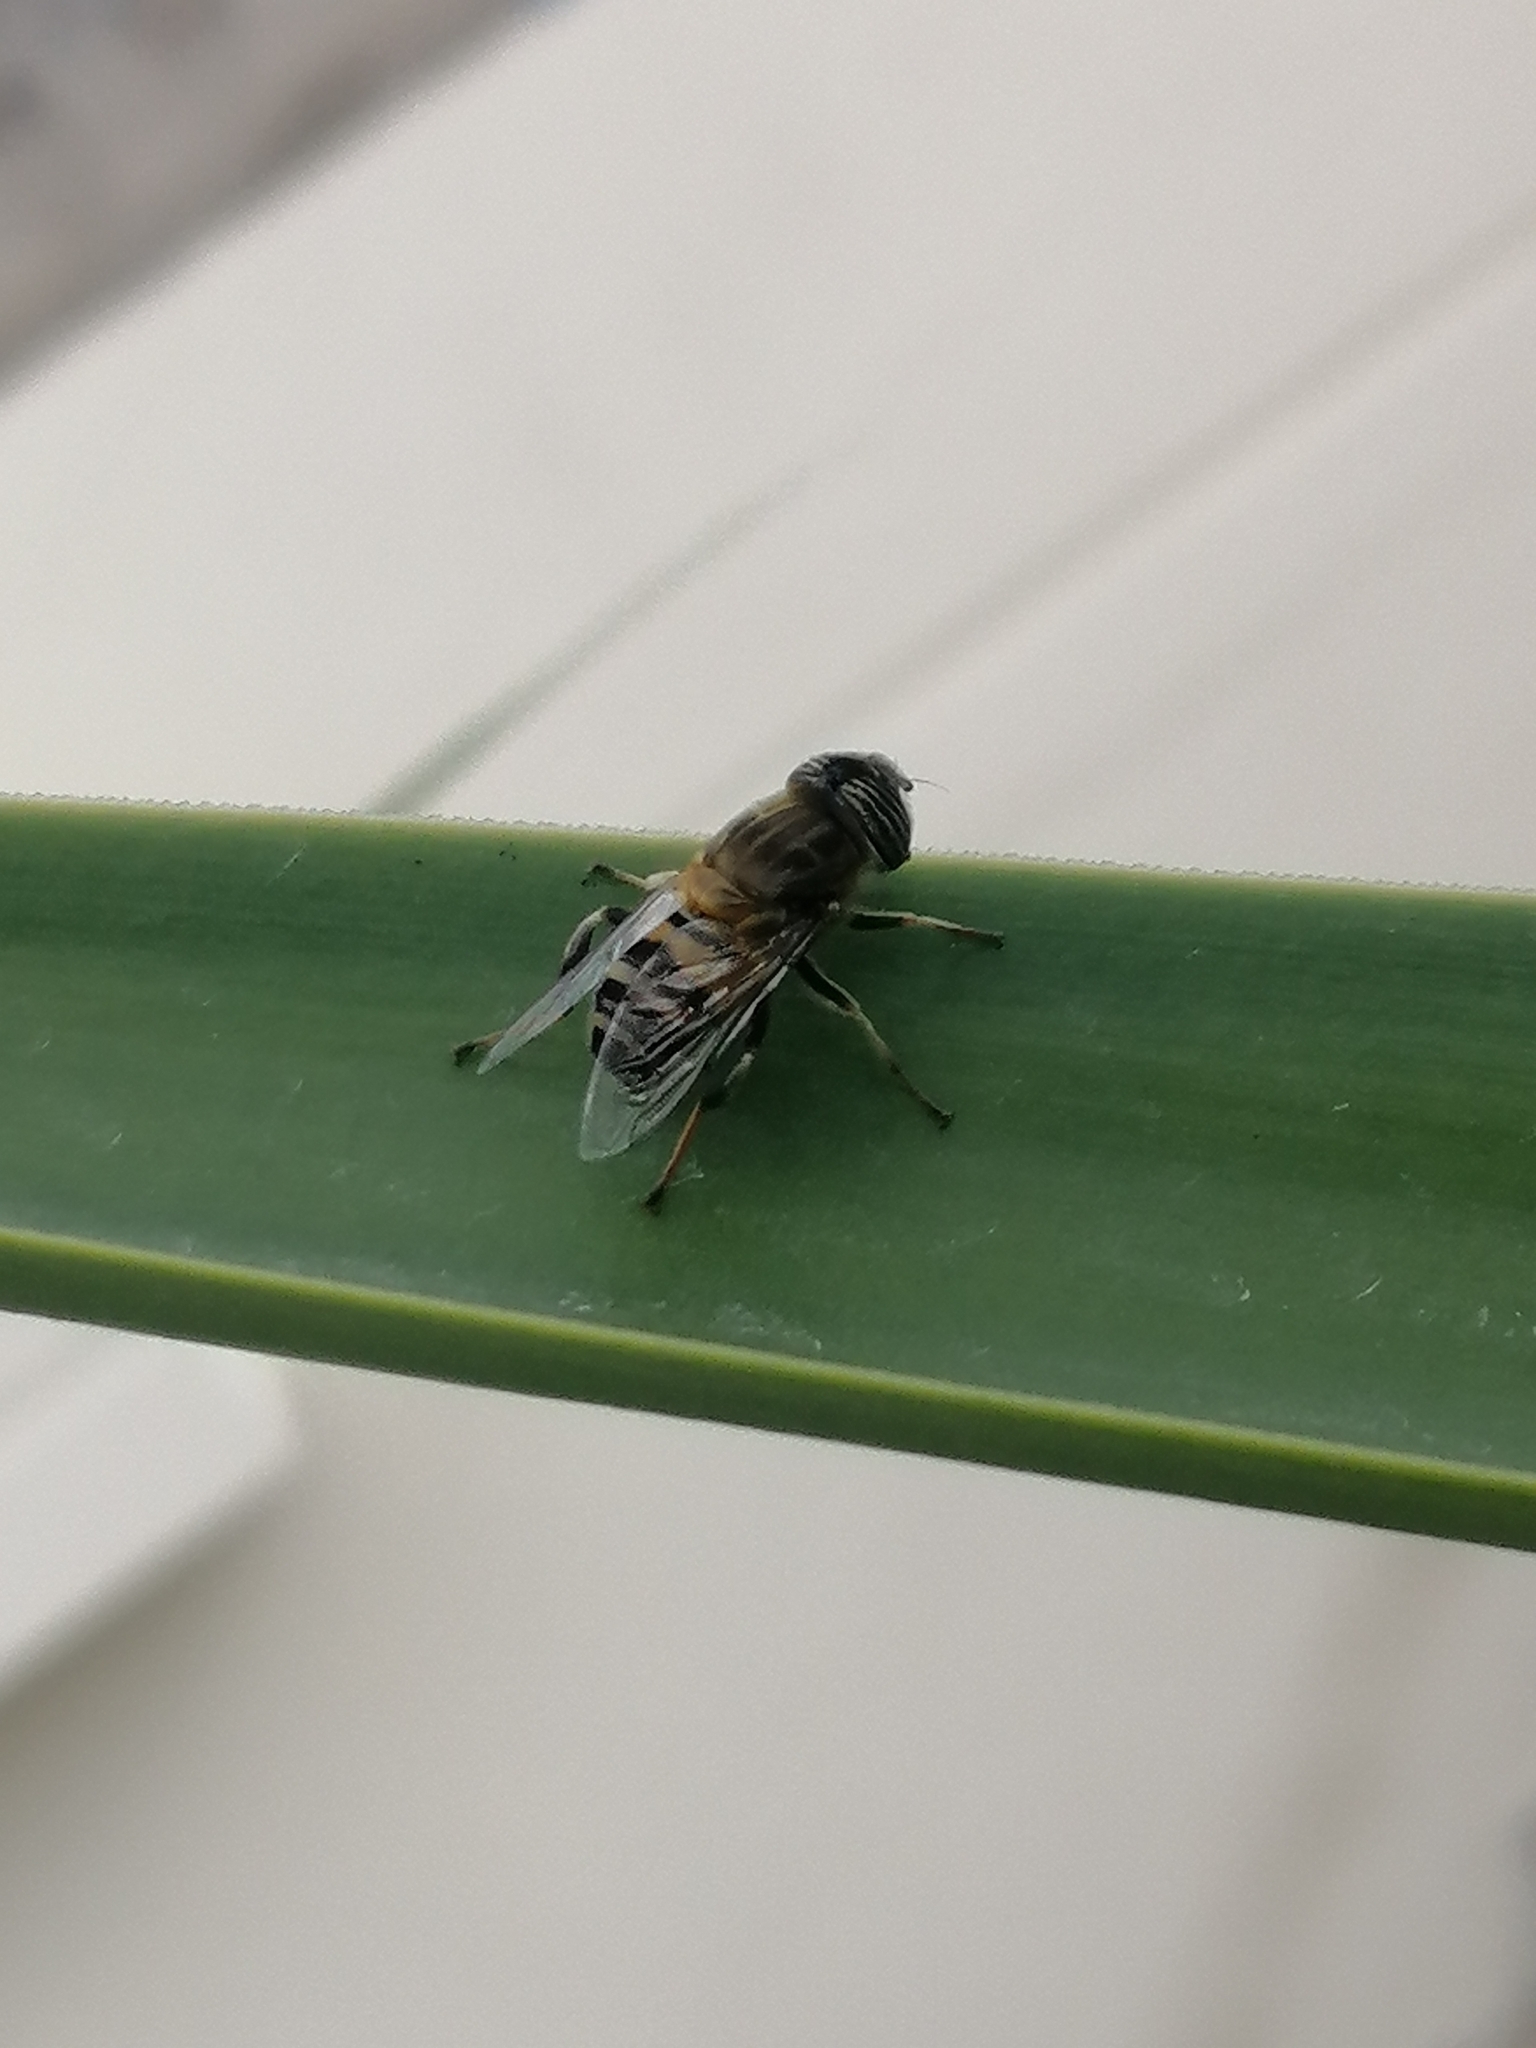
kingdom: Animalia
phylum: Arthropoda
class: Insecta
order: Diptera
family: Syrphidae
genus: Eristalinus
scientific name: Eristalinus taeniops
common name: Syrphid fly
